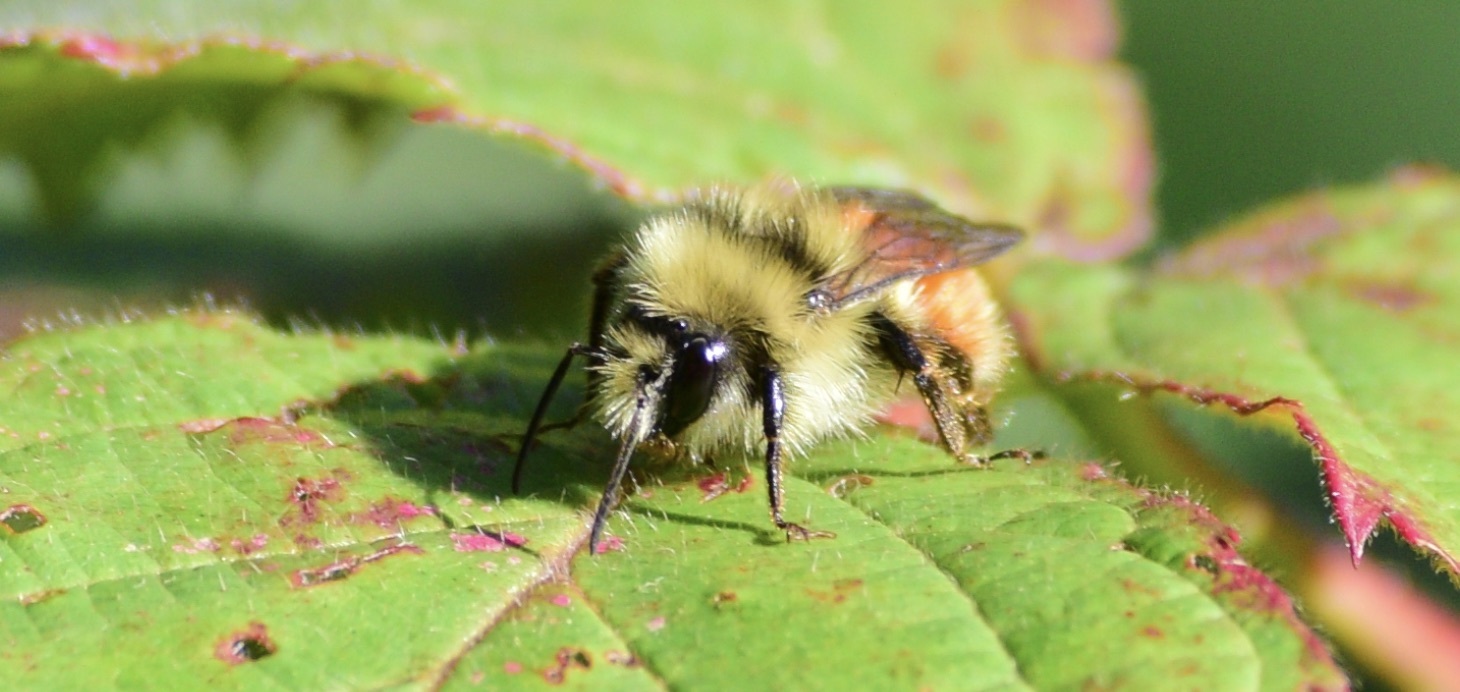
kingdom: Animalia
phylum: Arthropoda
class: Insecta
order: Hymenoptera
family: Apidae
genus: Bombus
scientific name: Bombus ternarius
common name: Tri-colored bumble bee
